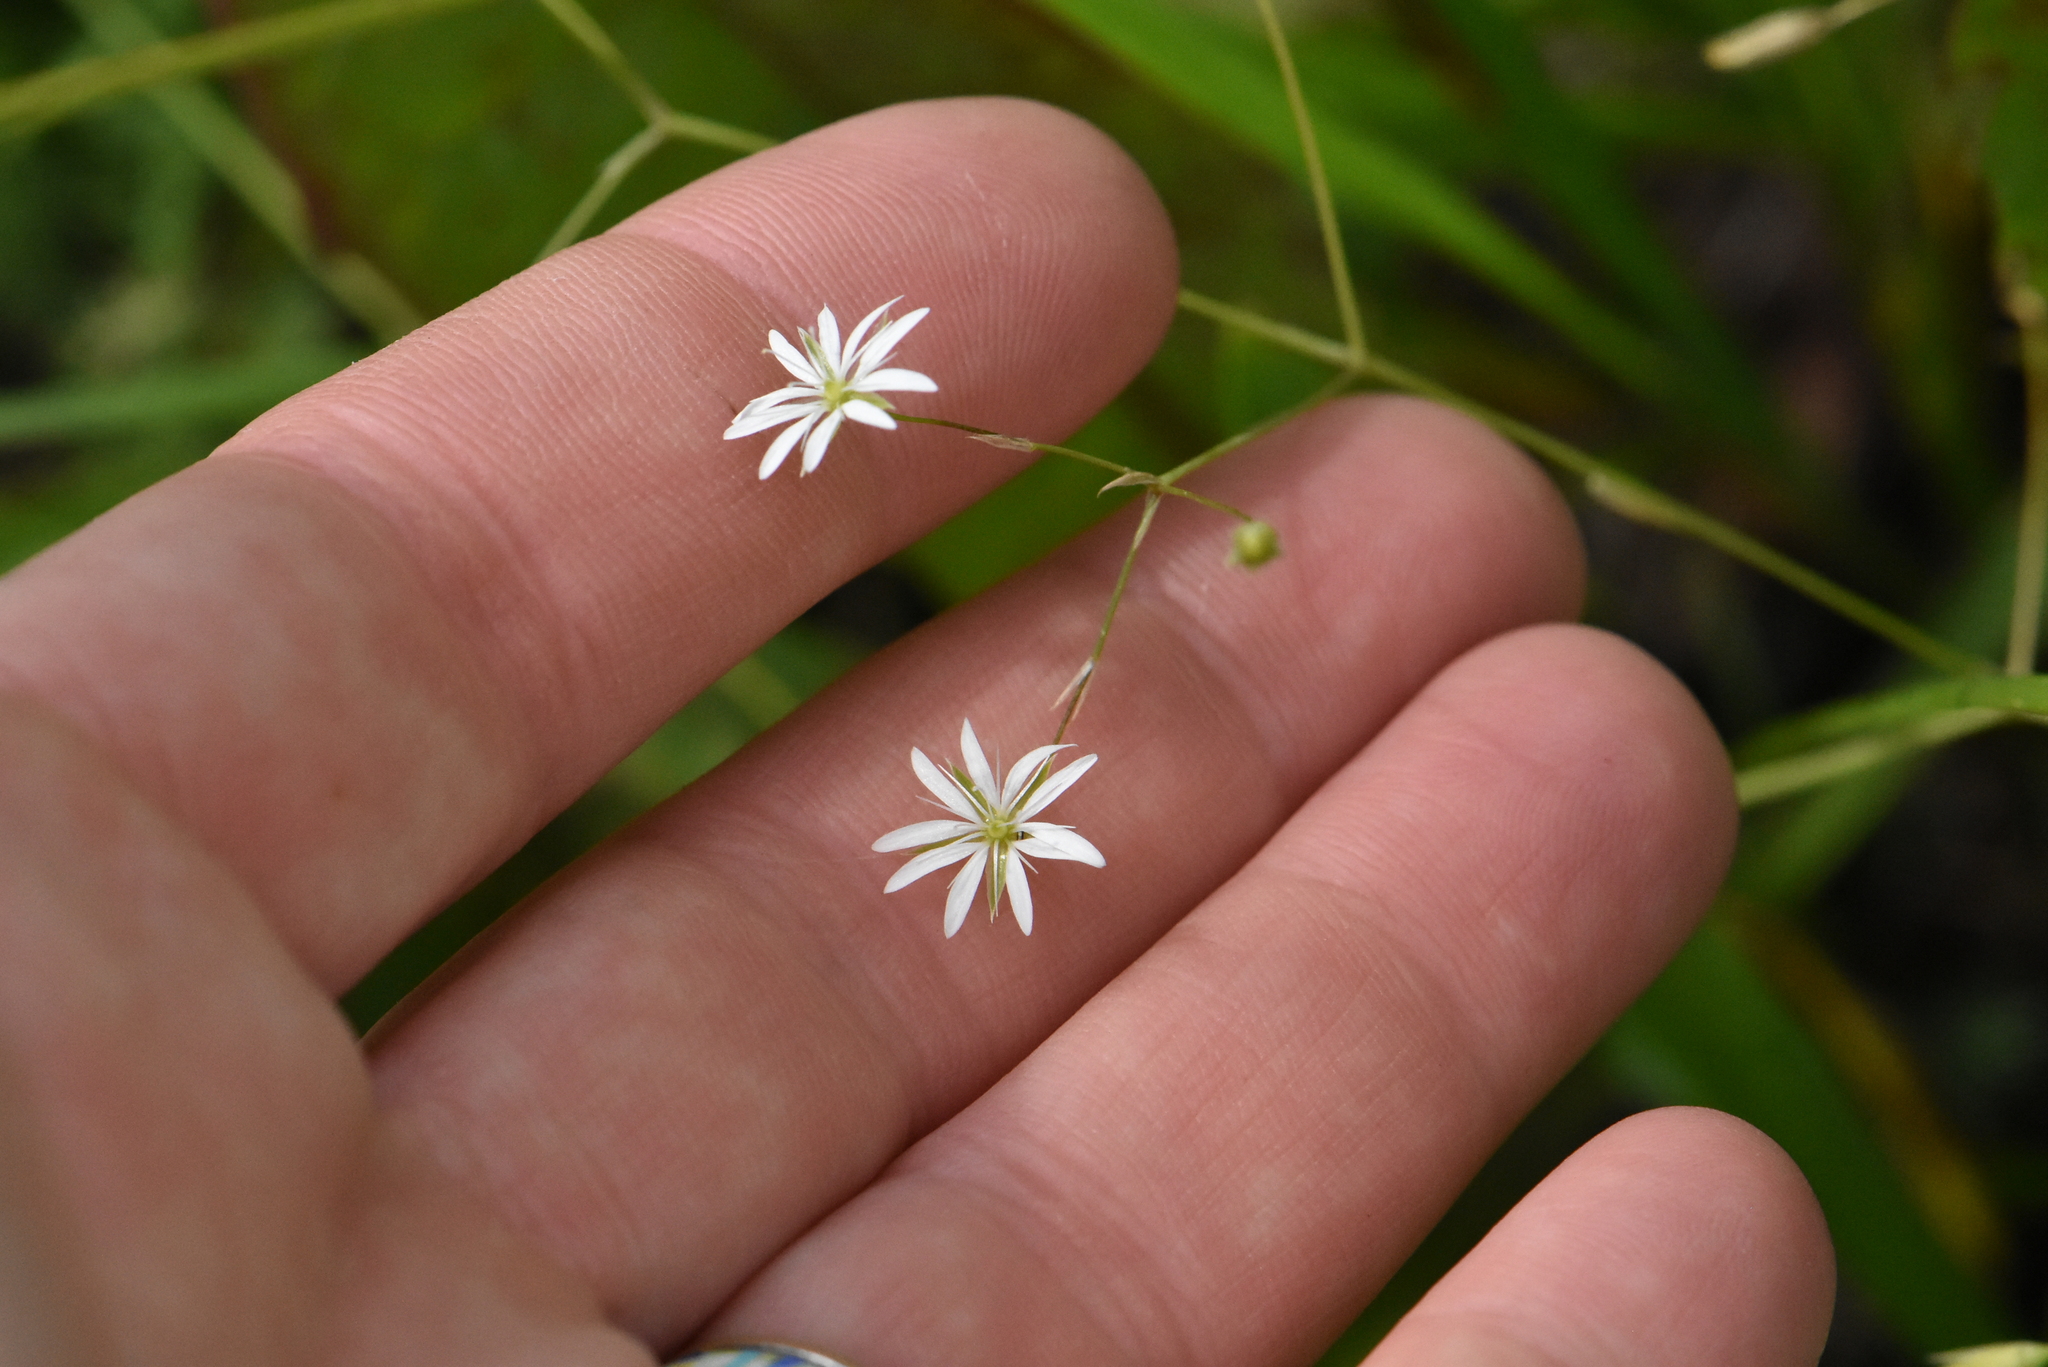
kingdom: Plantae
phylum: Tracheophyta
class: Magnoliopsida
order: Caryophyllales
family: Caryophyllaceae
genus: Stellaria
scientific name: Stellaria graminea
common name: Grass-like starwort
